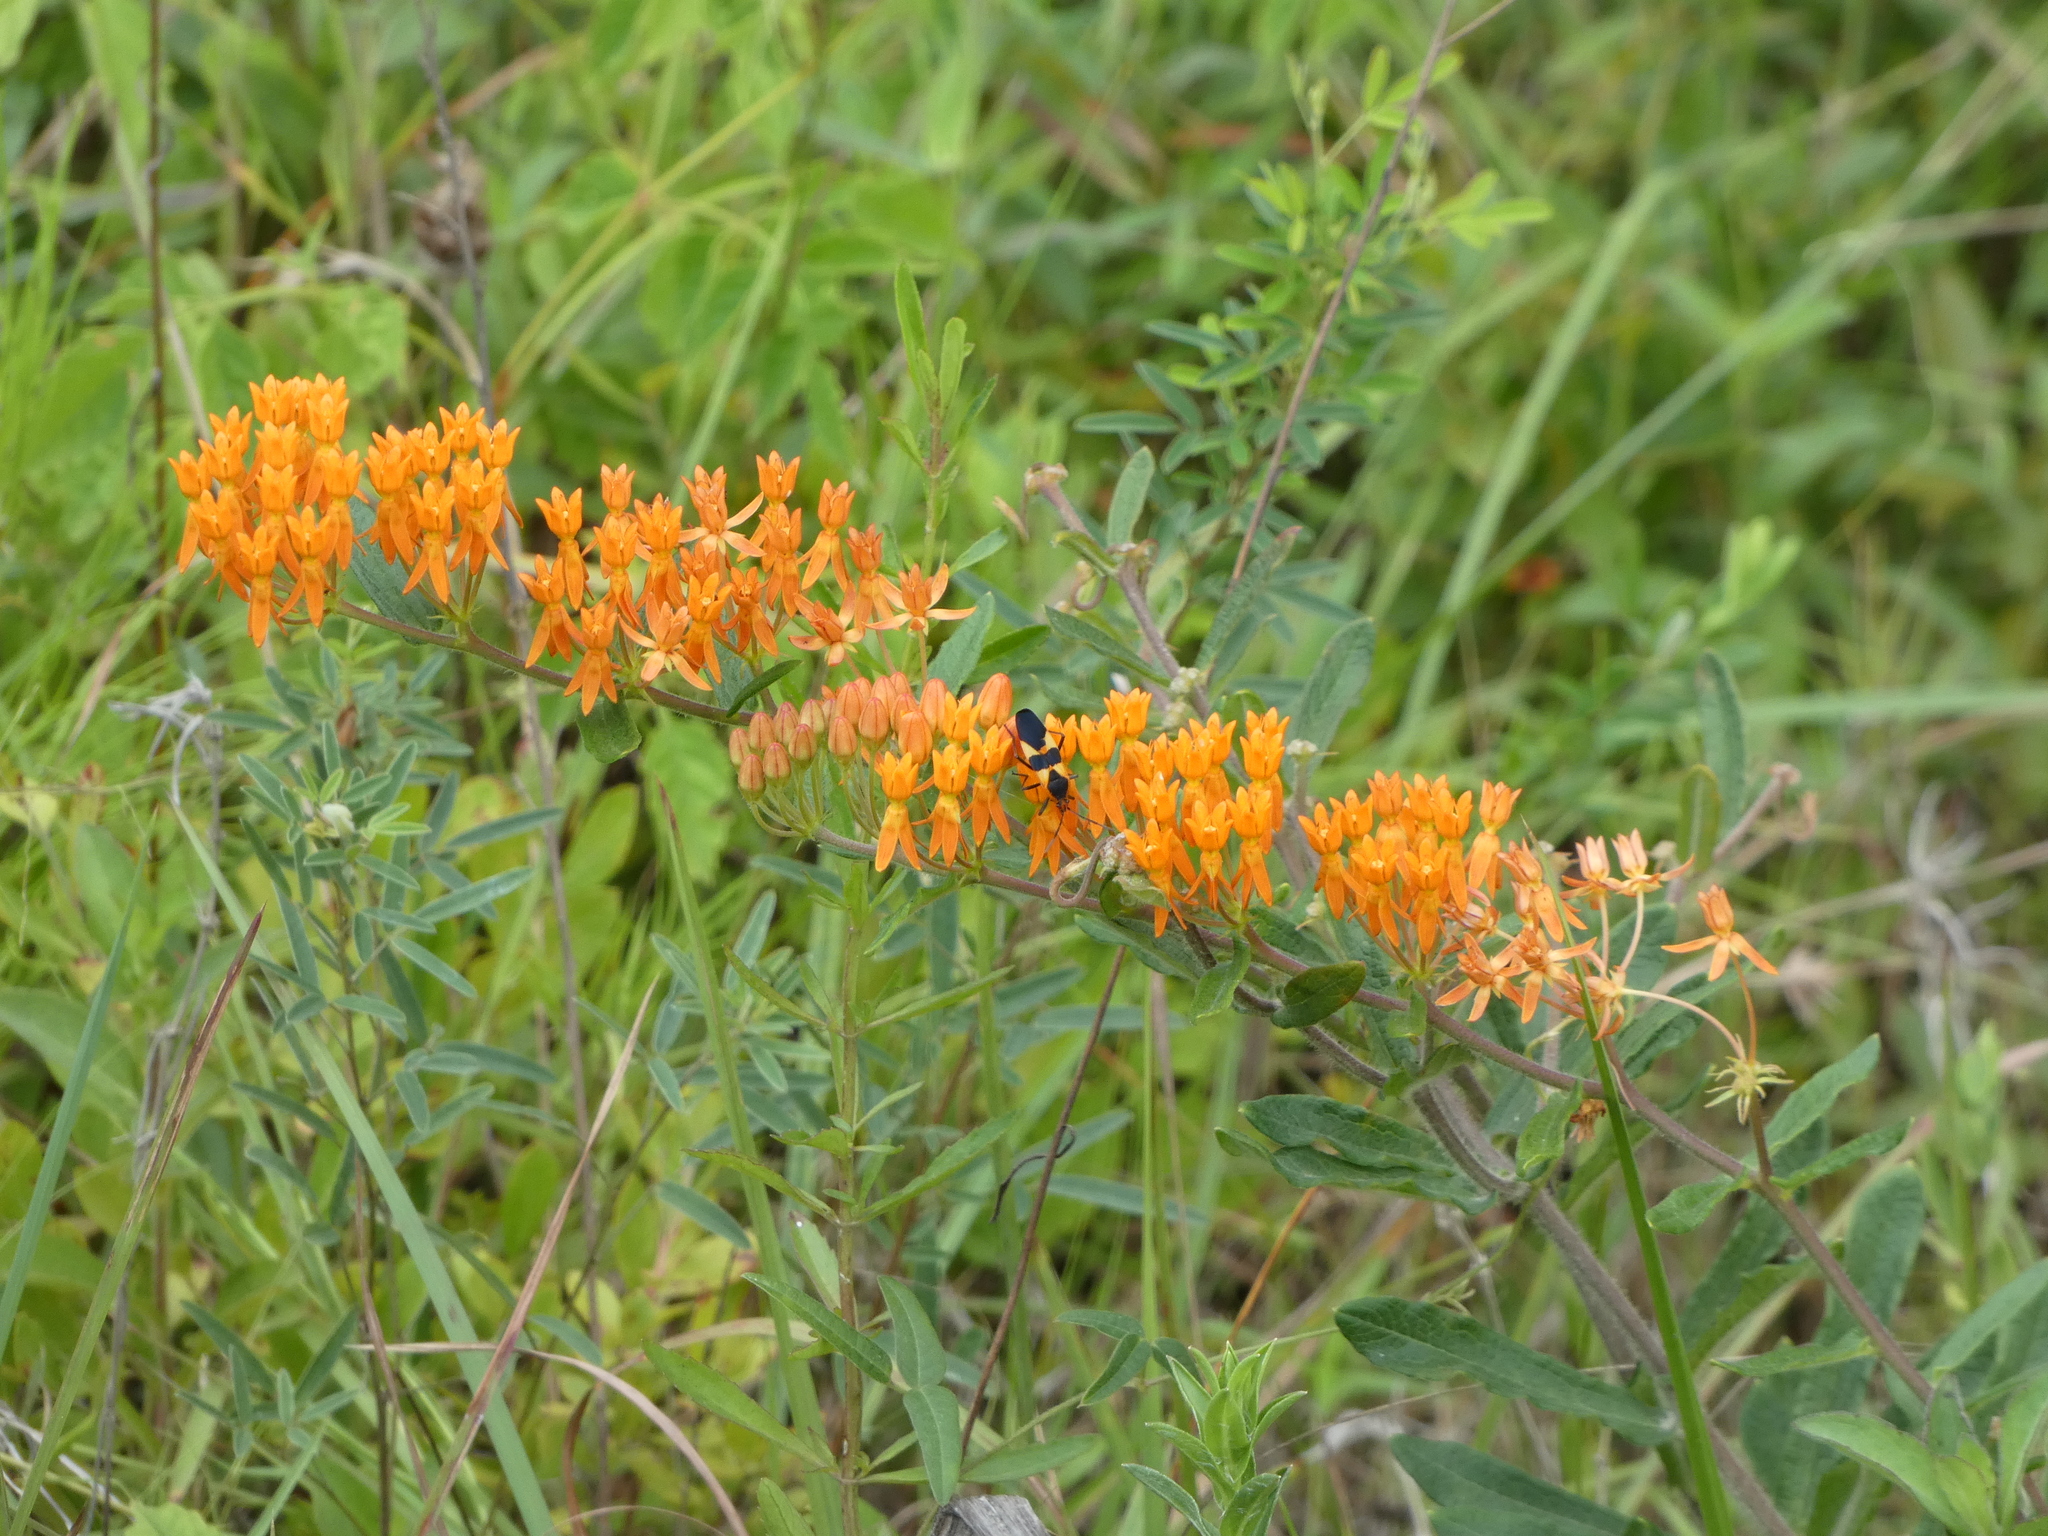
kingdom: Plantae
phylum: Tracheophyta
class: Magnoliopsida
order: Gentianales
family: Apocynaceae
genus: Asclepias
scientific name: Asclepias tuberosa
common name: Butterfly milkweed
